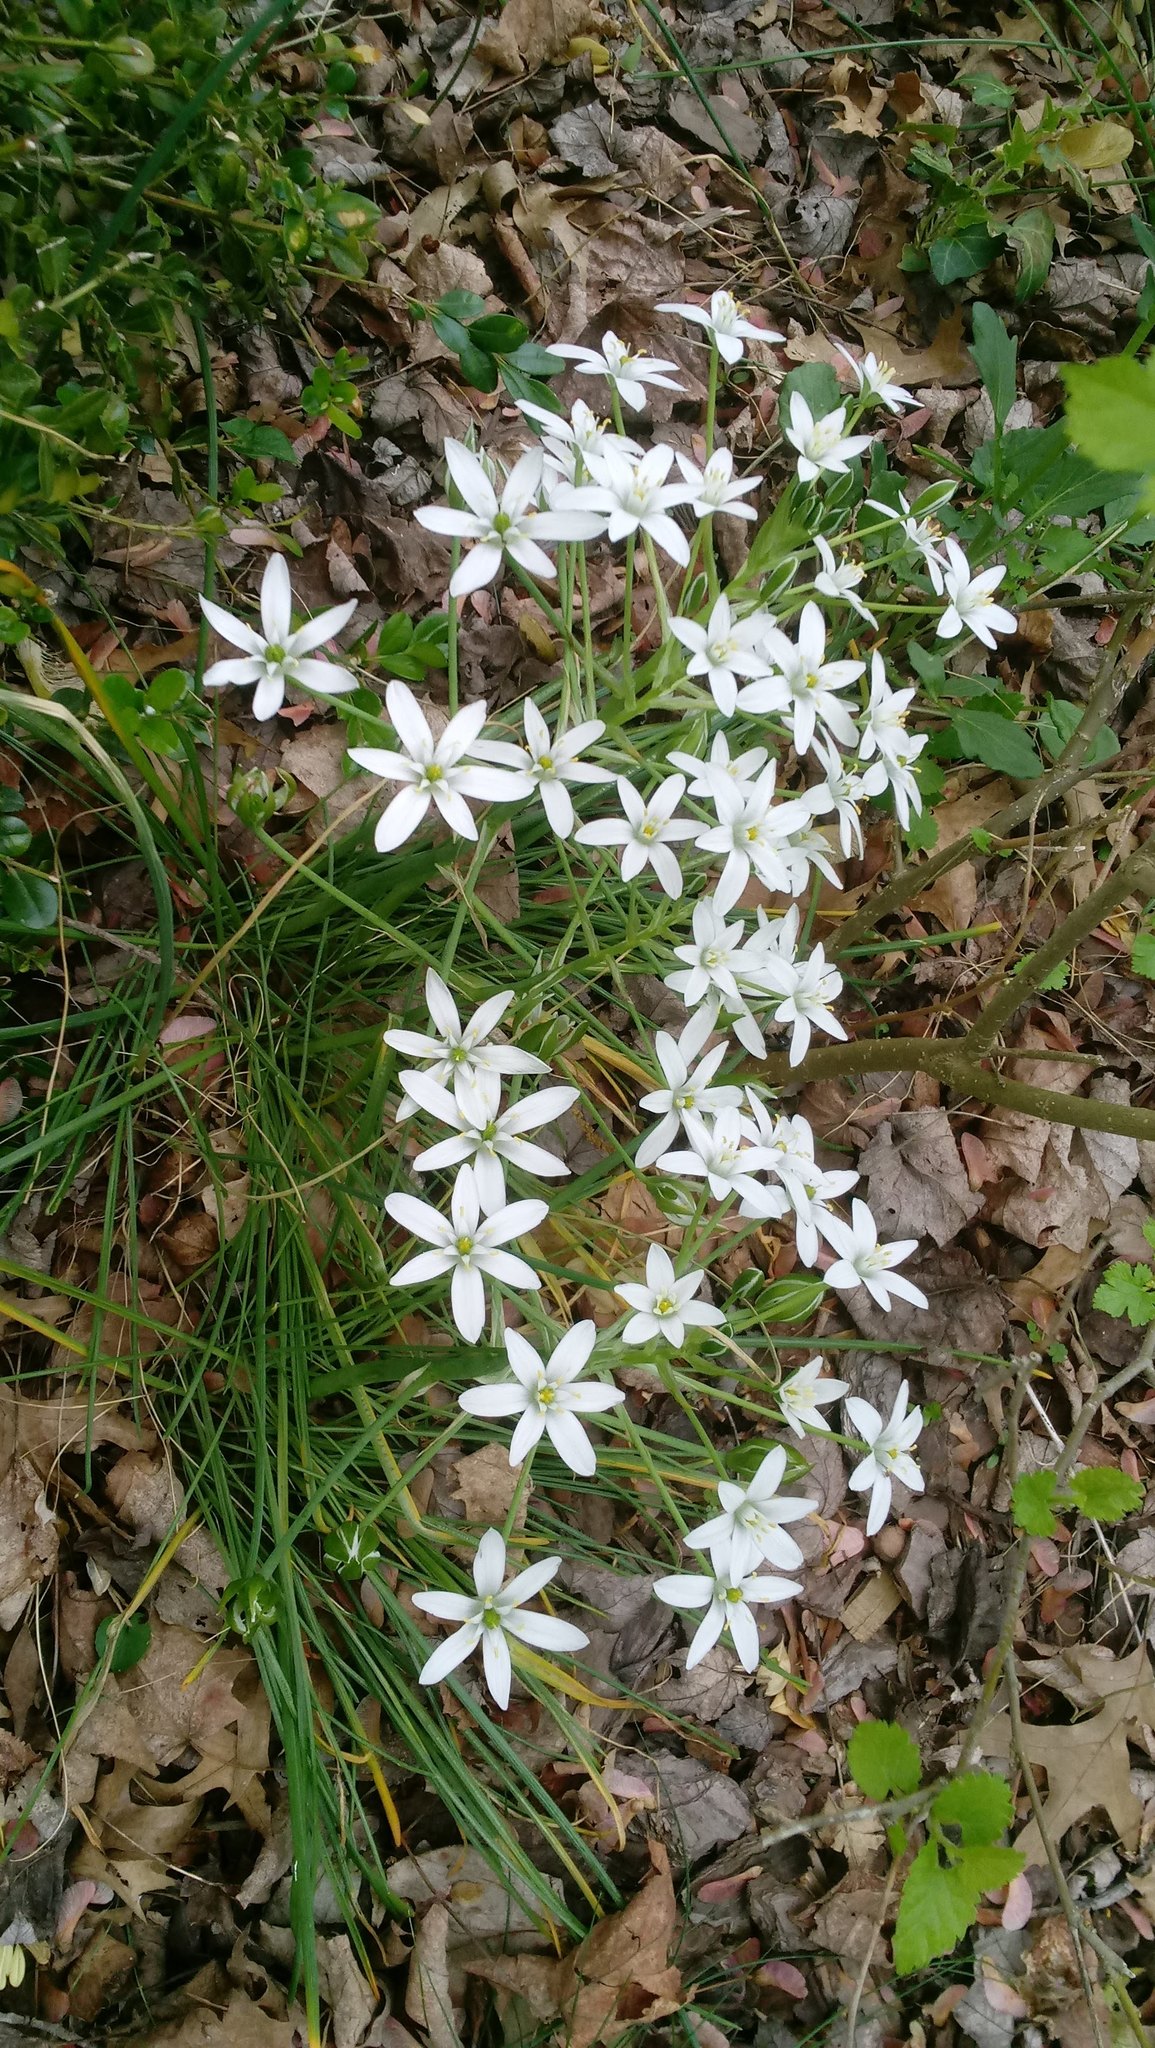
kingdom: Plantae
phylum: Tracheophyta
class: Liliopsida
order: Asparagales
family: Asparagaceae
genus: Ornithogalum
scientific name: Ornithogalum umbellatum
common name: Garden star-of-bethlehem
